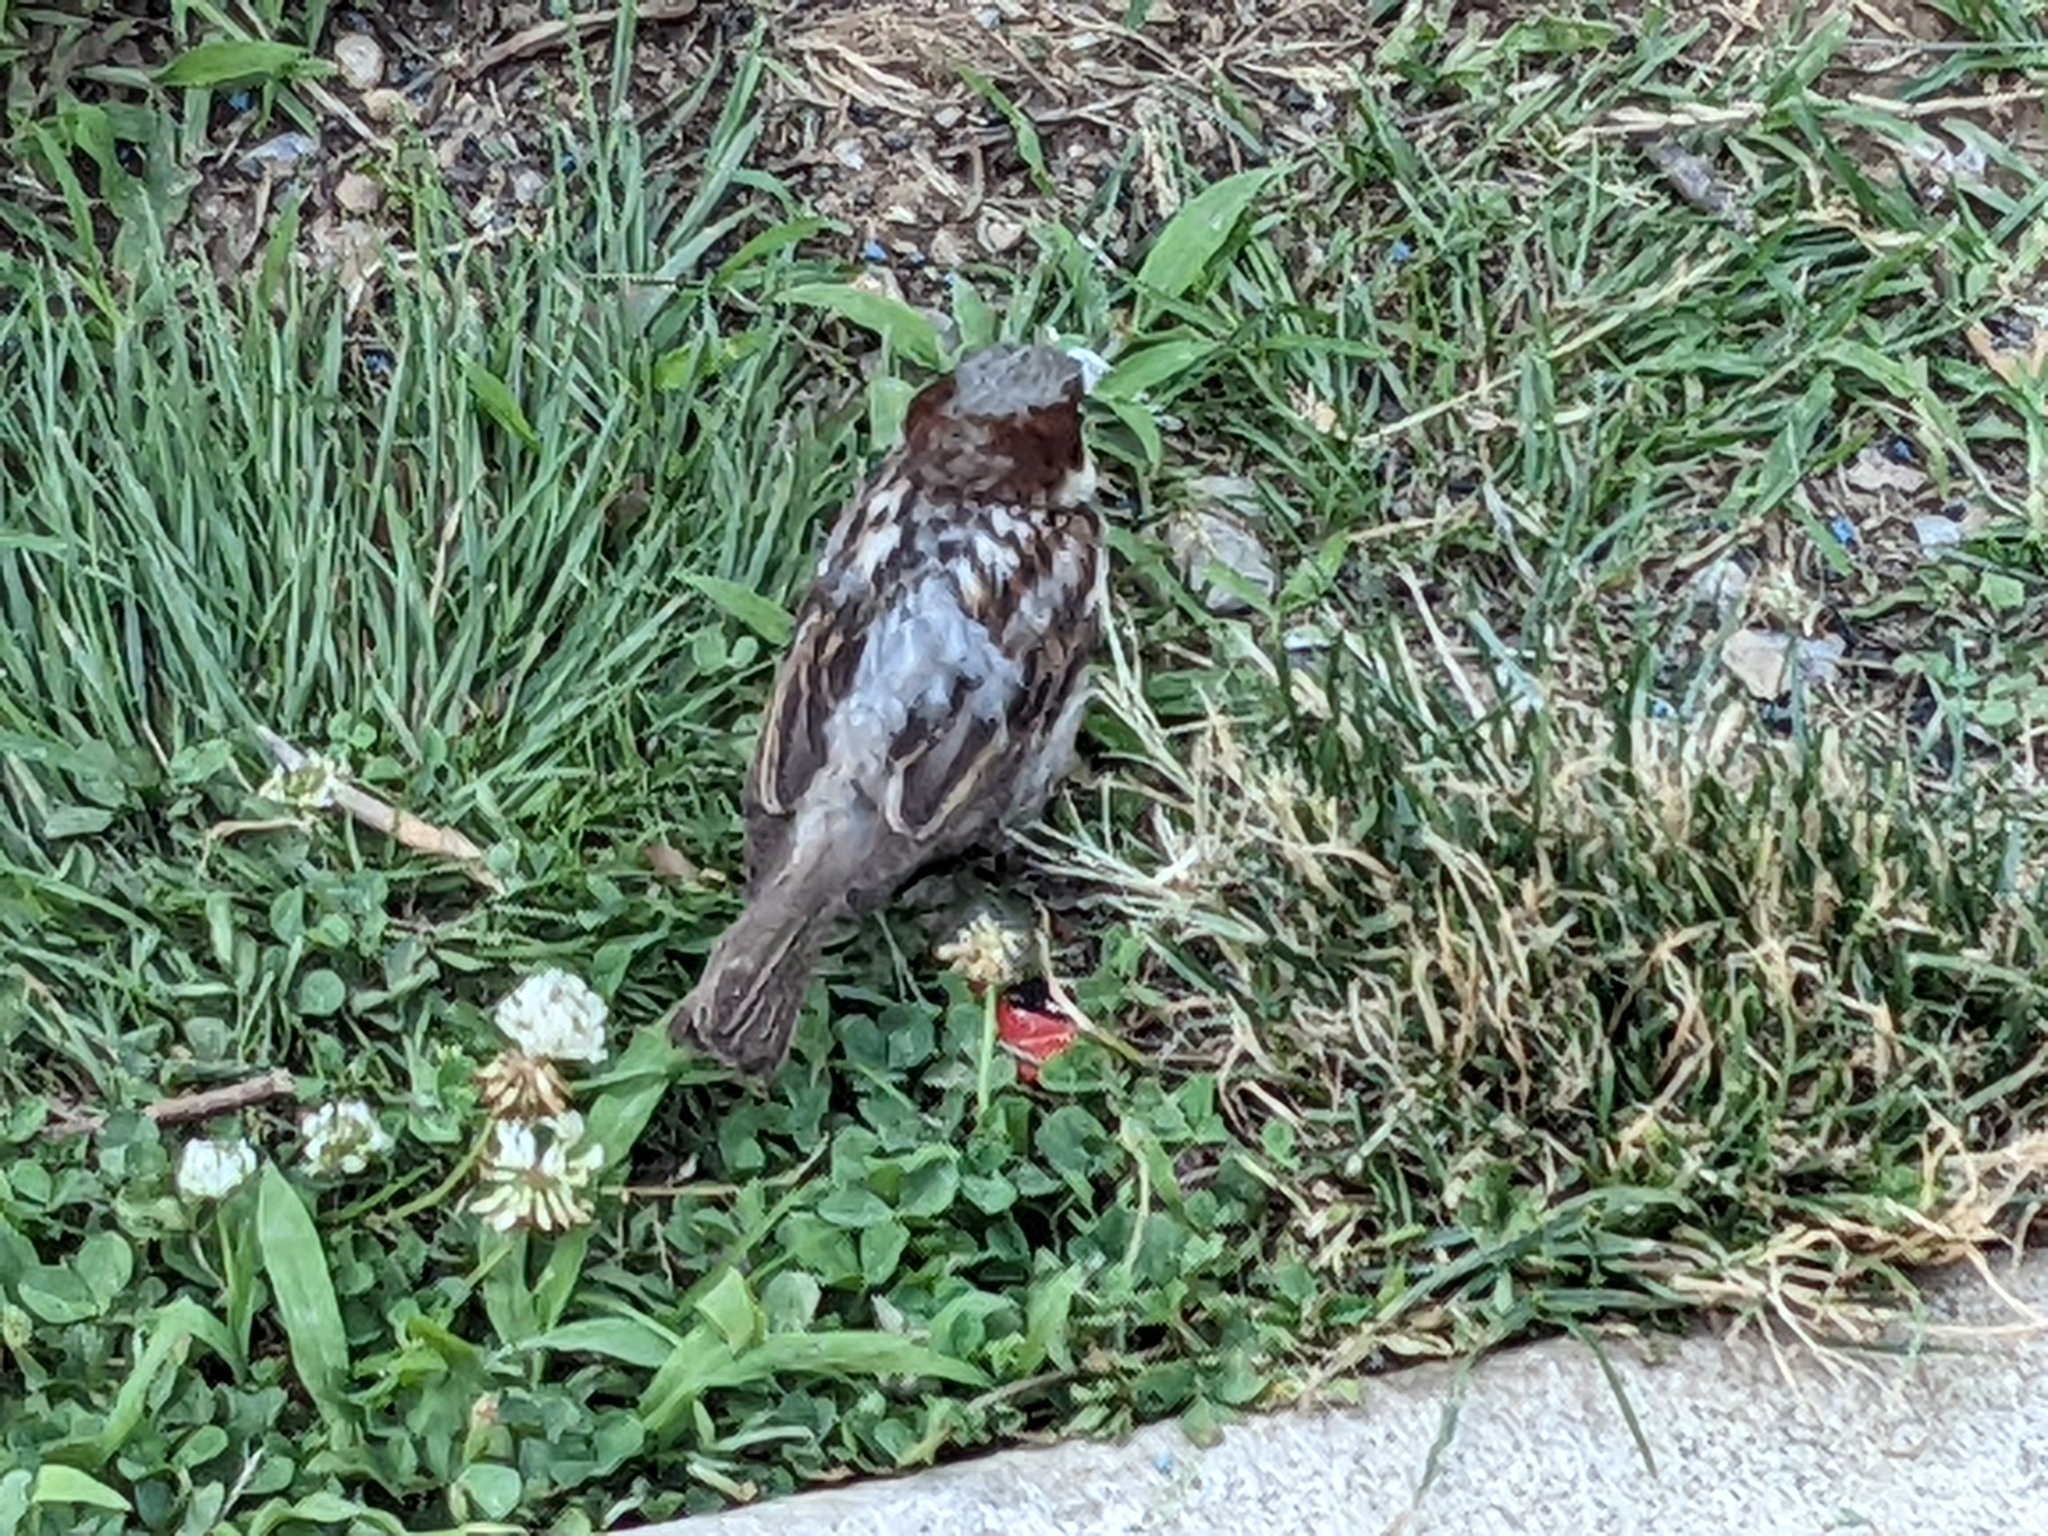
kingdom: Animalia
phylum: Chordata
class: Aves
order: Passeriformes
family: Passeridae
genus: Passer
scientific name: Passer domesticus
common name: House sparrow
